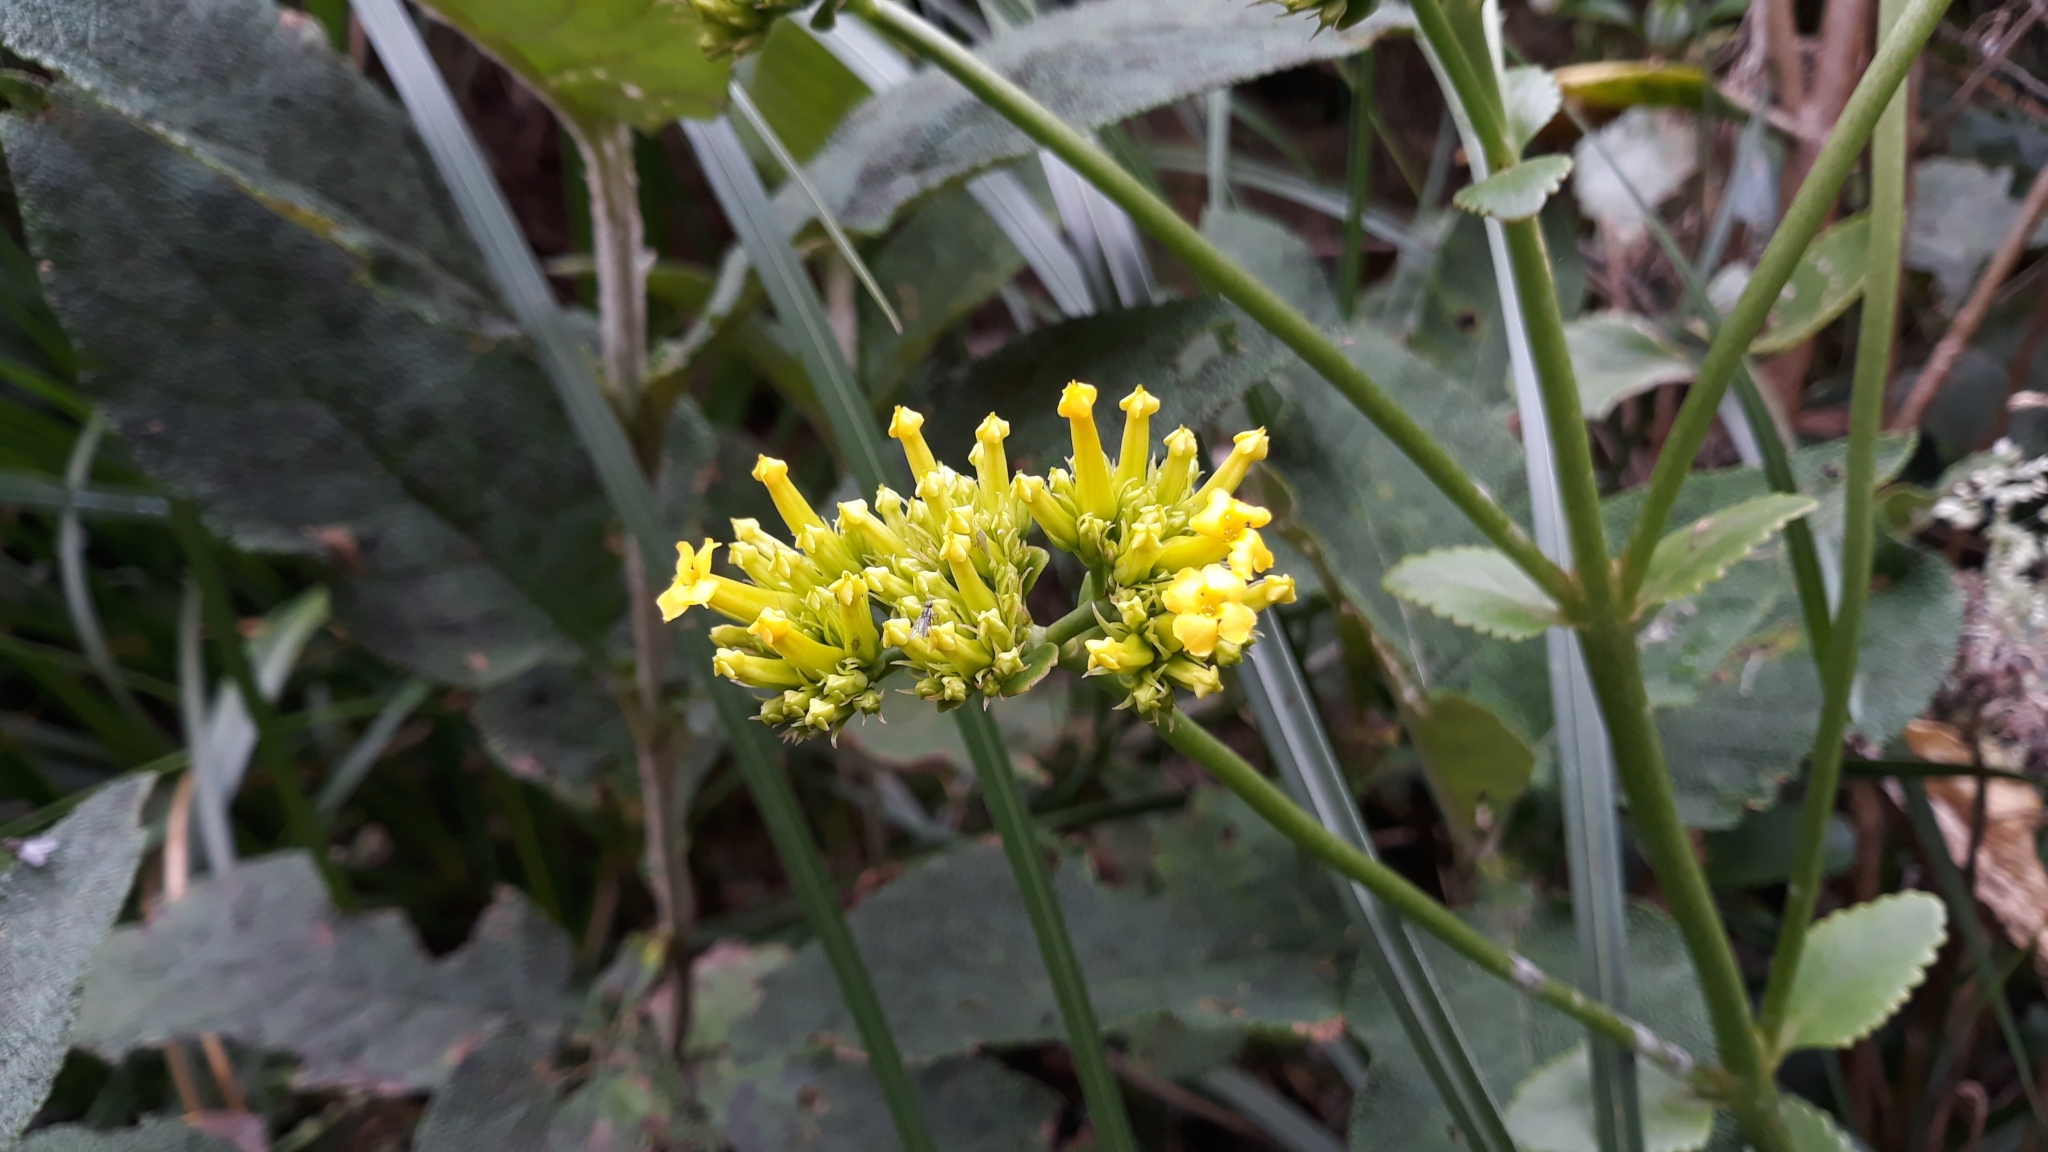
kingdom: Plantae
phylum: Tracheophyta
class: Magnoliopsida
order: Saxifragales
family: Crassulaceae
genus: Kalanchoe
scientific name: Kalanchoe densiflora
